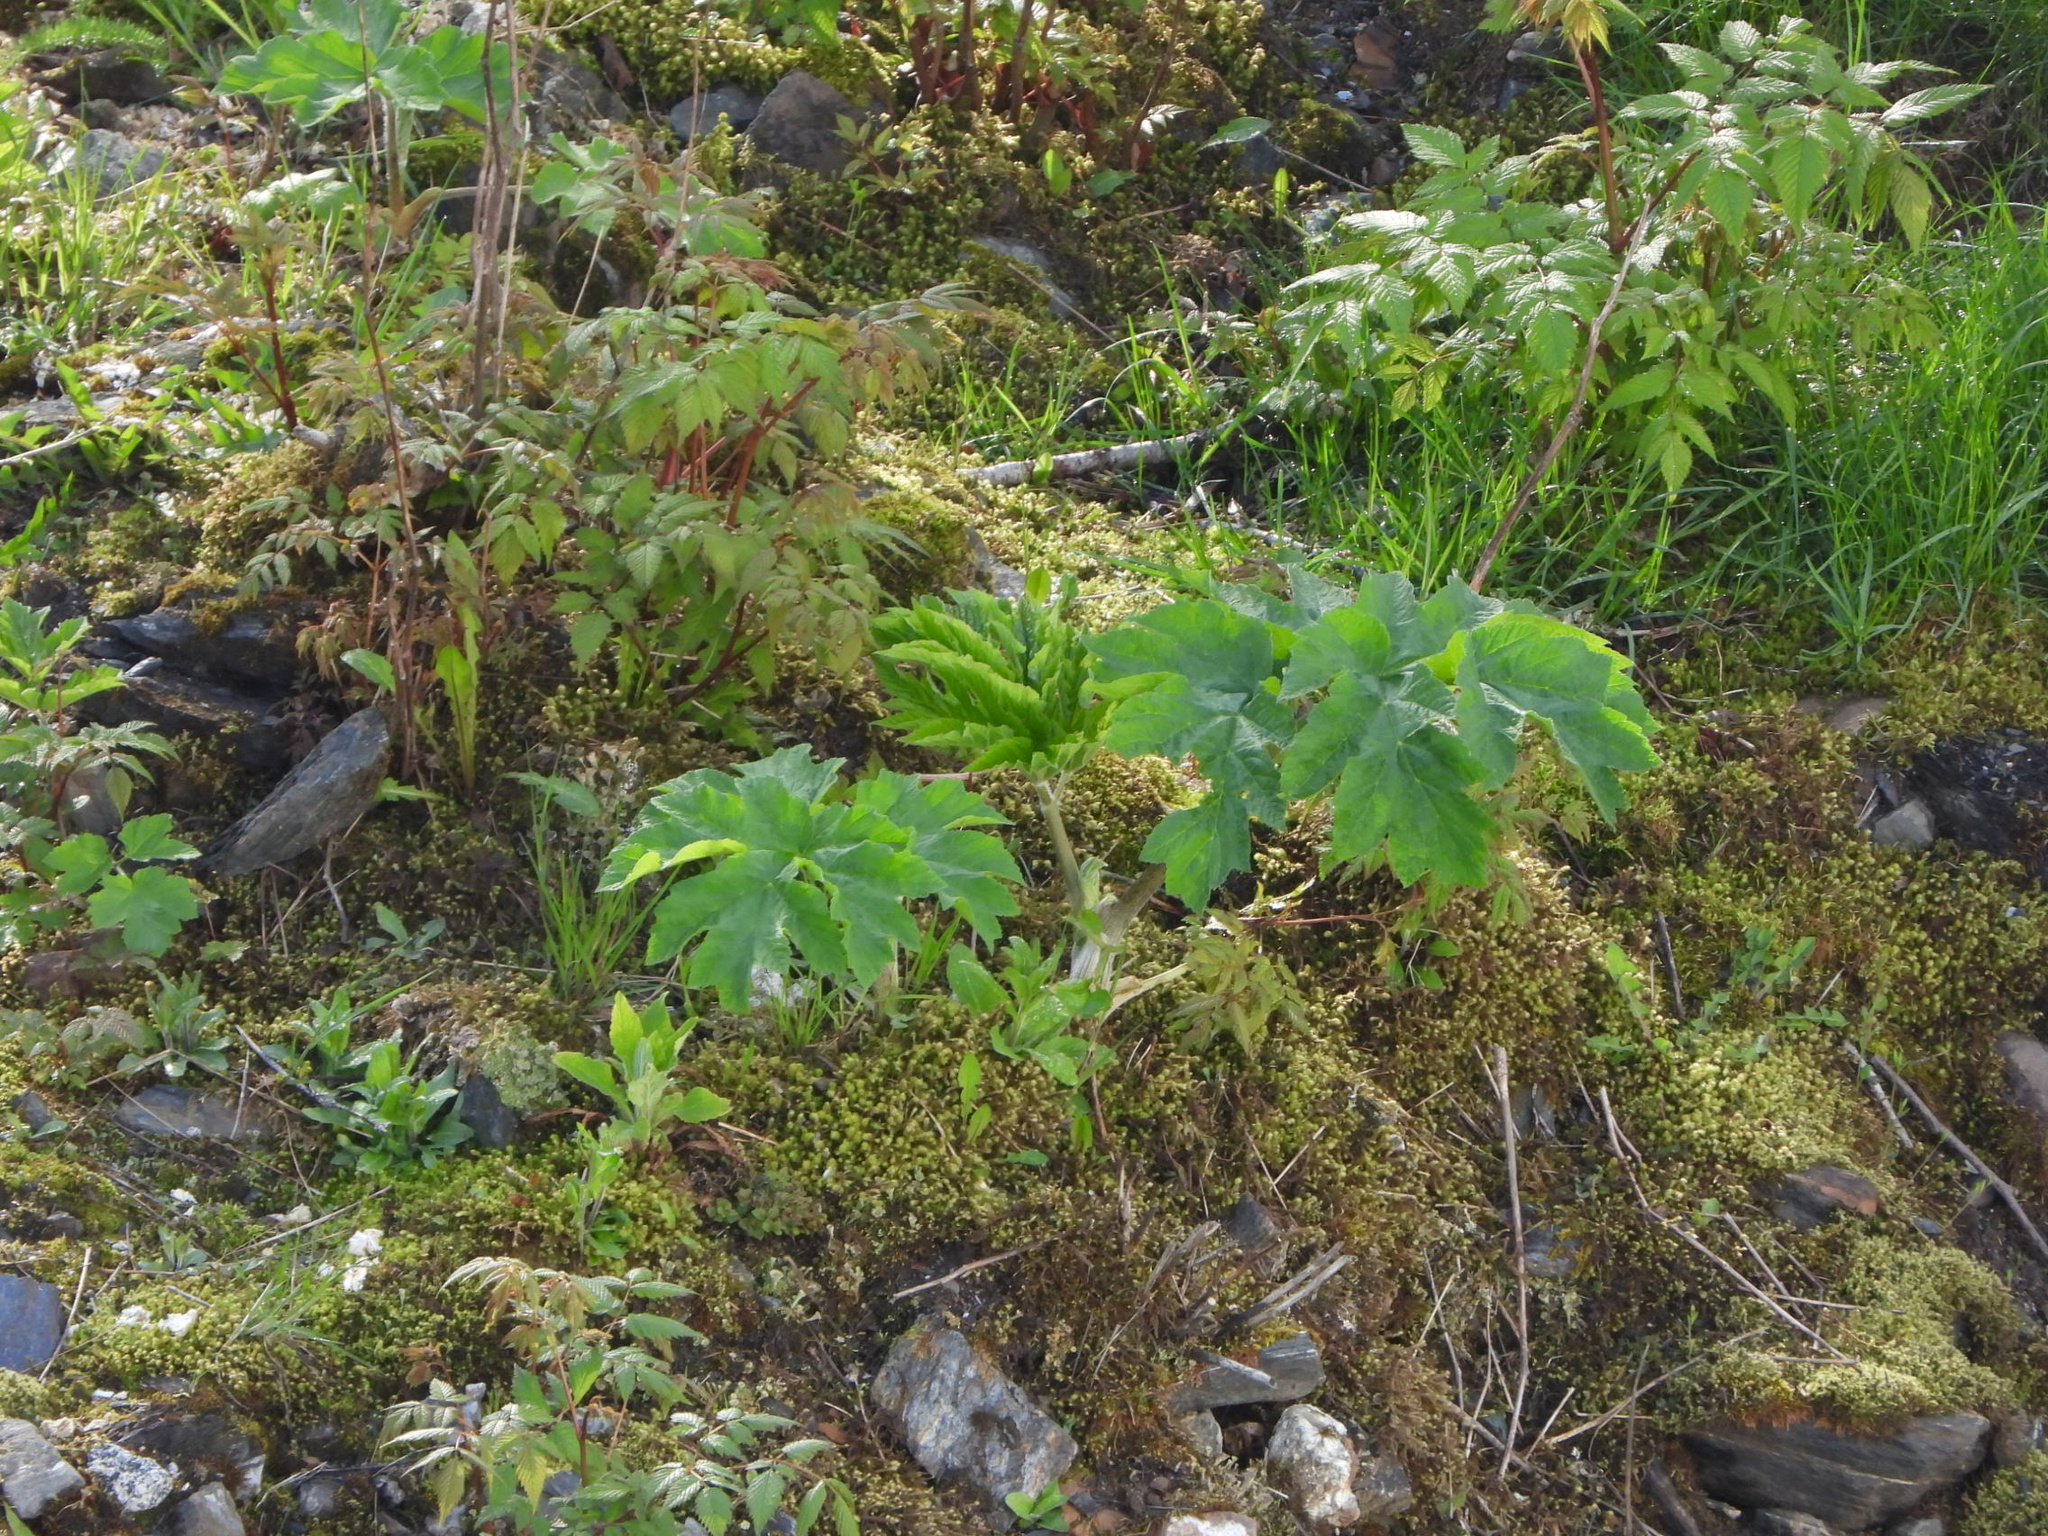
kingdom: Plantae
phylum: Tracheophyta
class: Magnoliopsida
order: Apiales
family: Apiaceae
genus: Heracleum
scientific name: Heracleum maximum
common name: American cow parsnip
